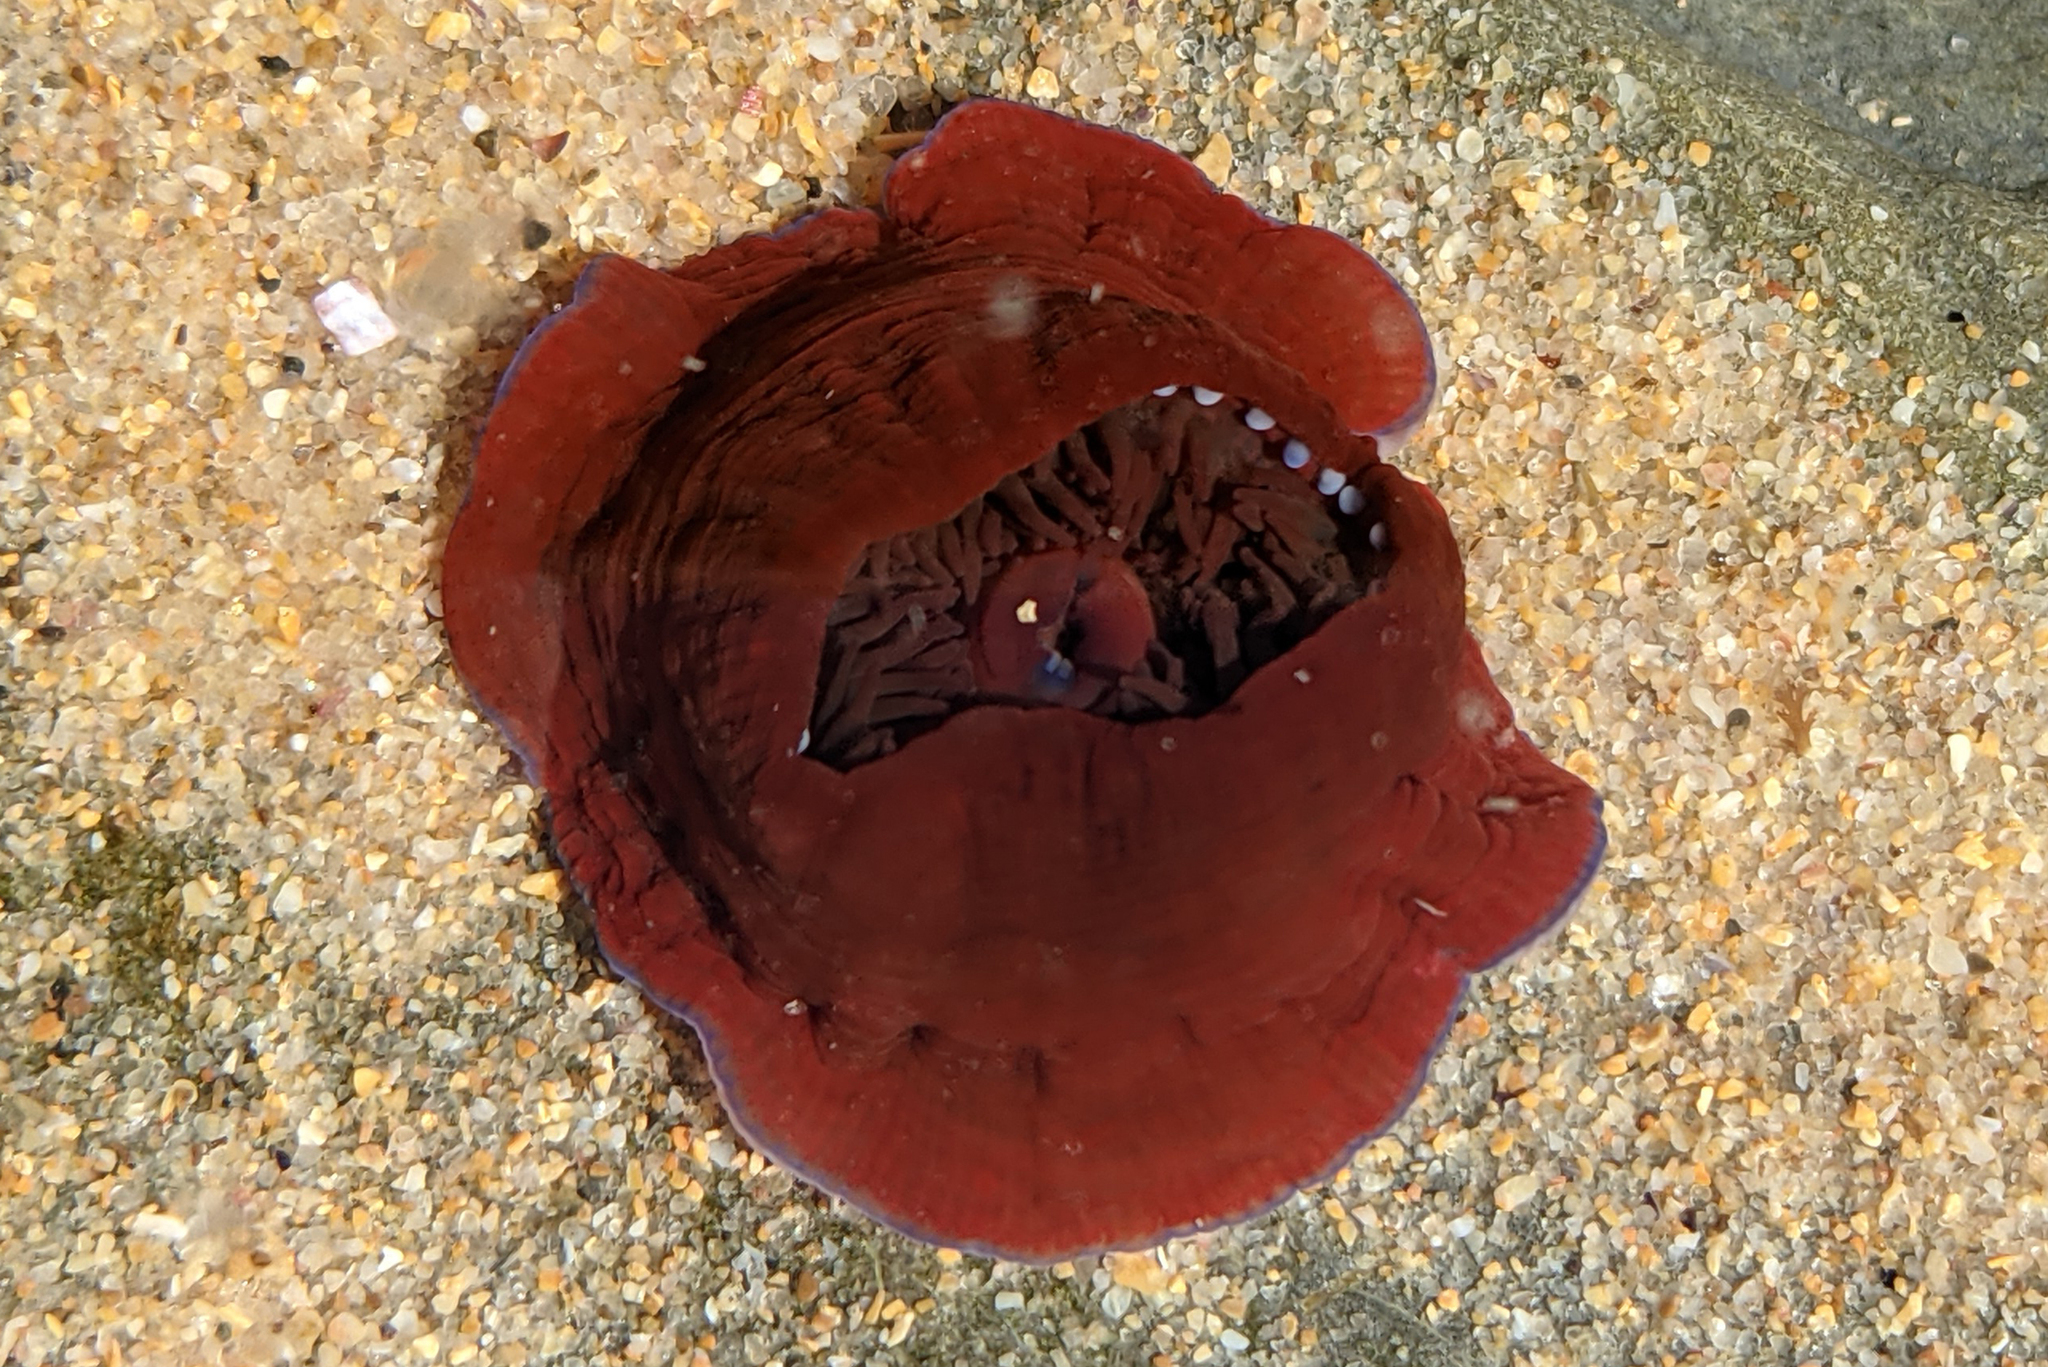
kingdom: Animalia
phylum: Cnidaria
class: Anthozoa
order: Actiniaria
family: Actiniidae
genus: Actinia
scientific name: Actinia equina
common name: Beadlet anemone
